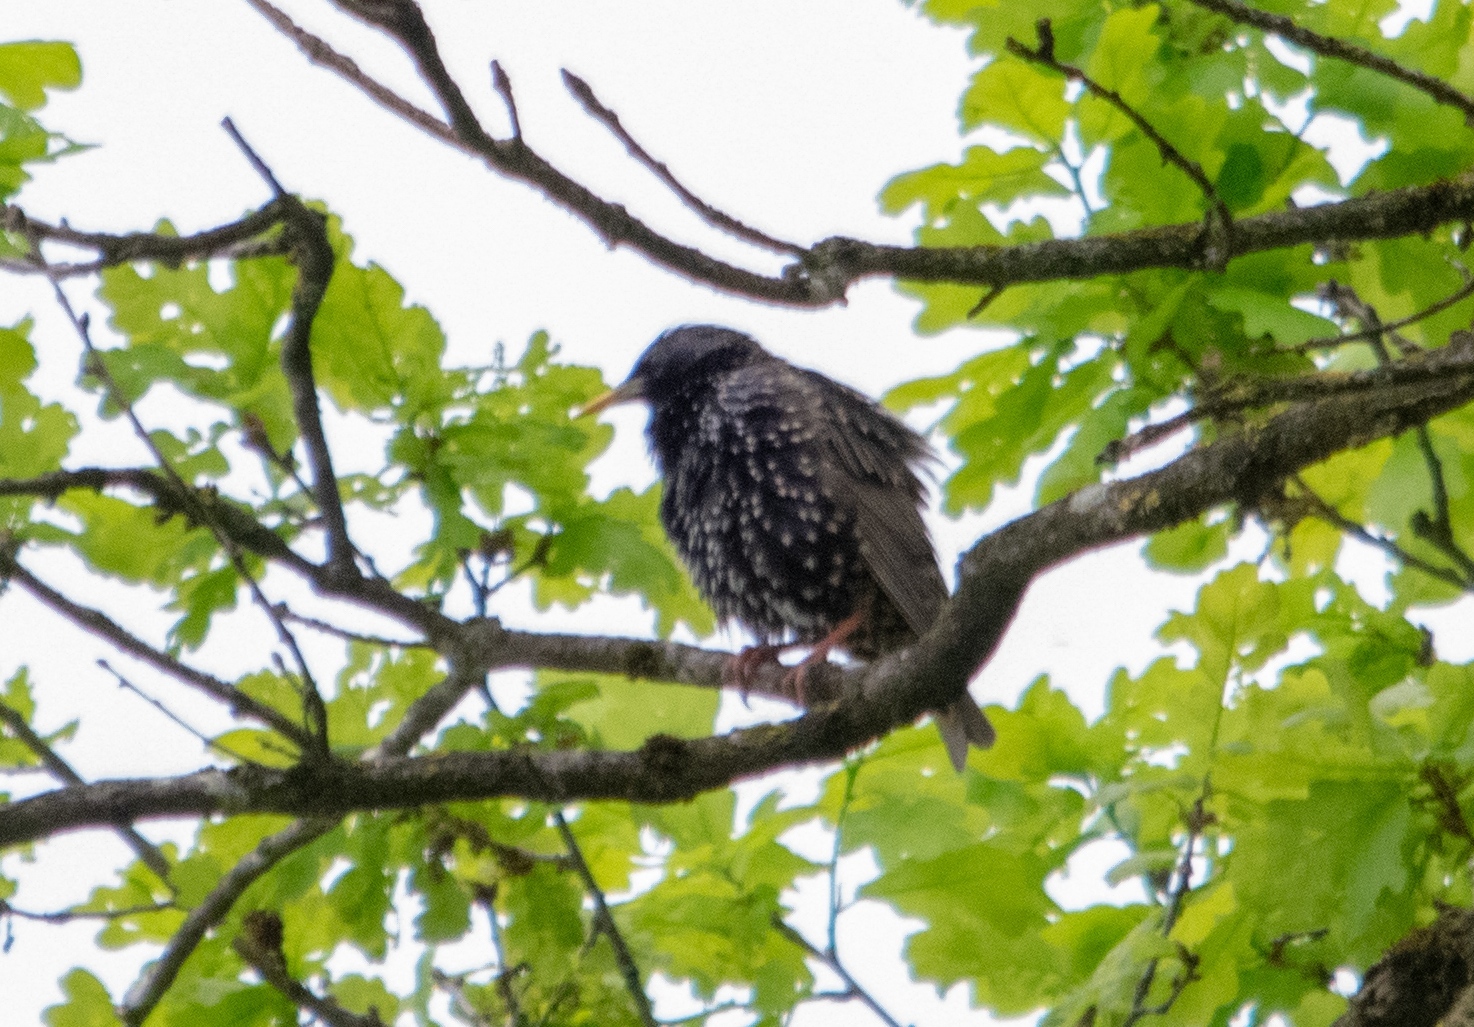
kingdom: Animalia
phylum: Chordata
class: Aves
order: Passeriformes
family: Sturnidae
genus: Sturnus
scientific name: Sturnus vulgaris
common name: Common starling
